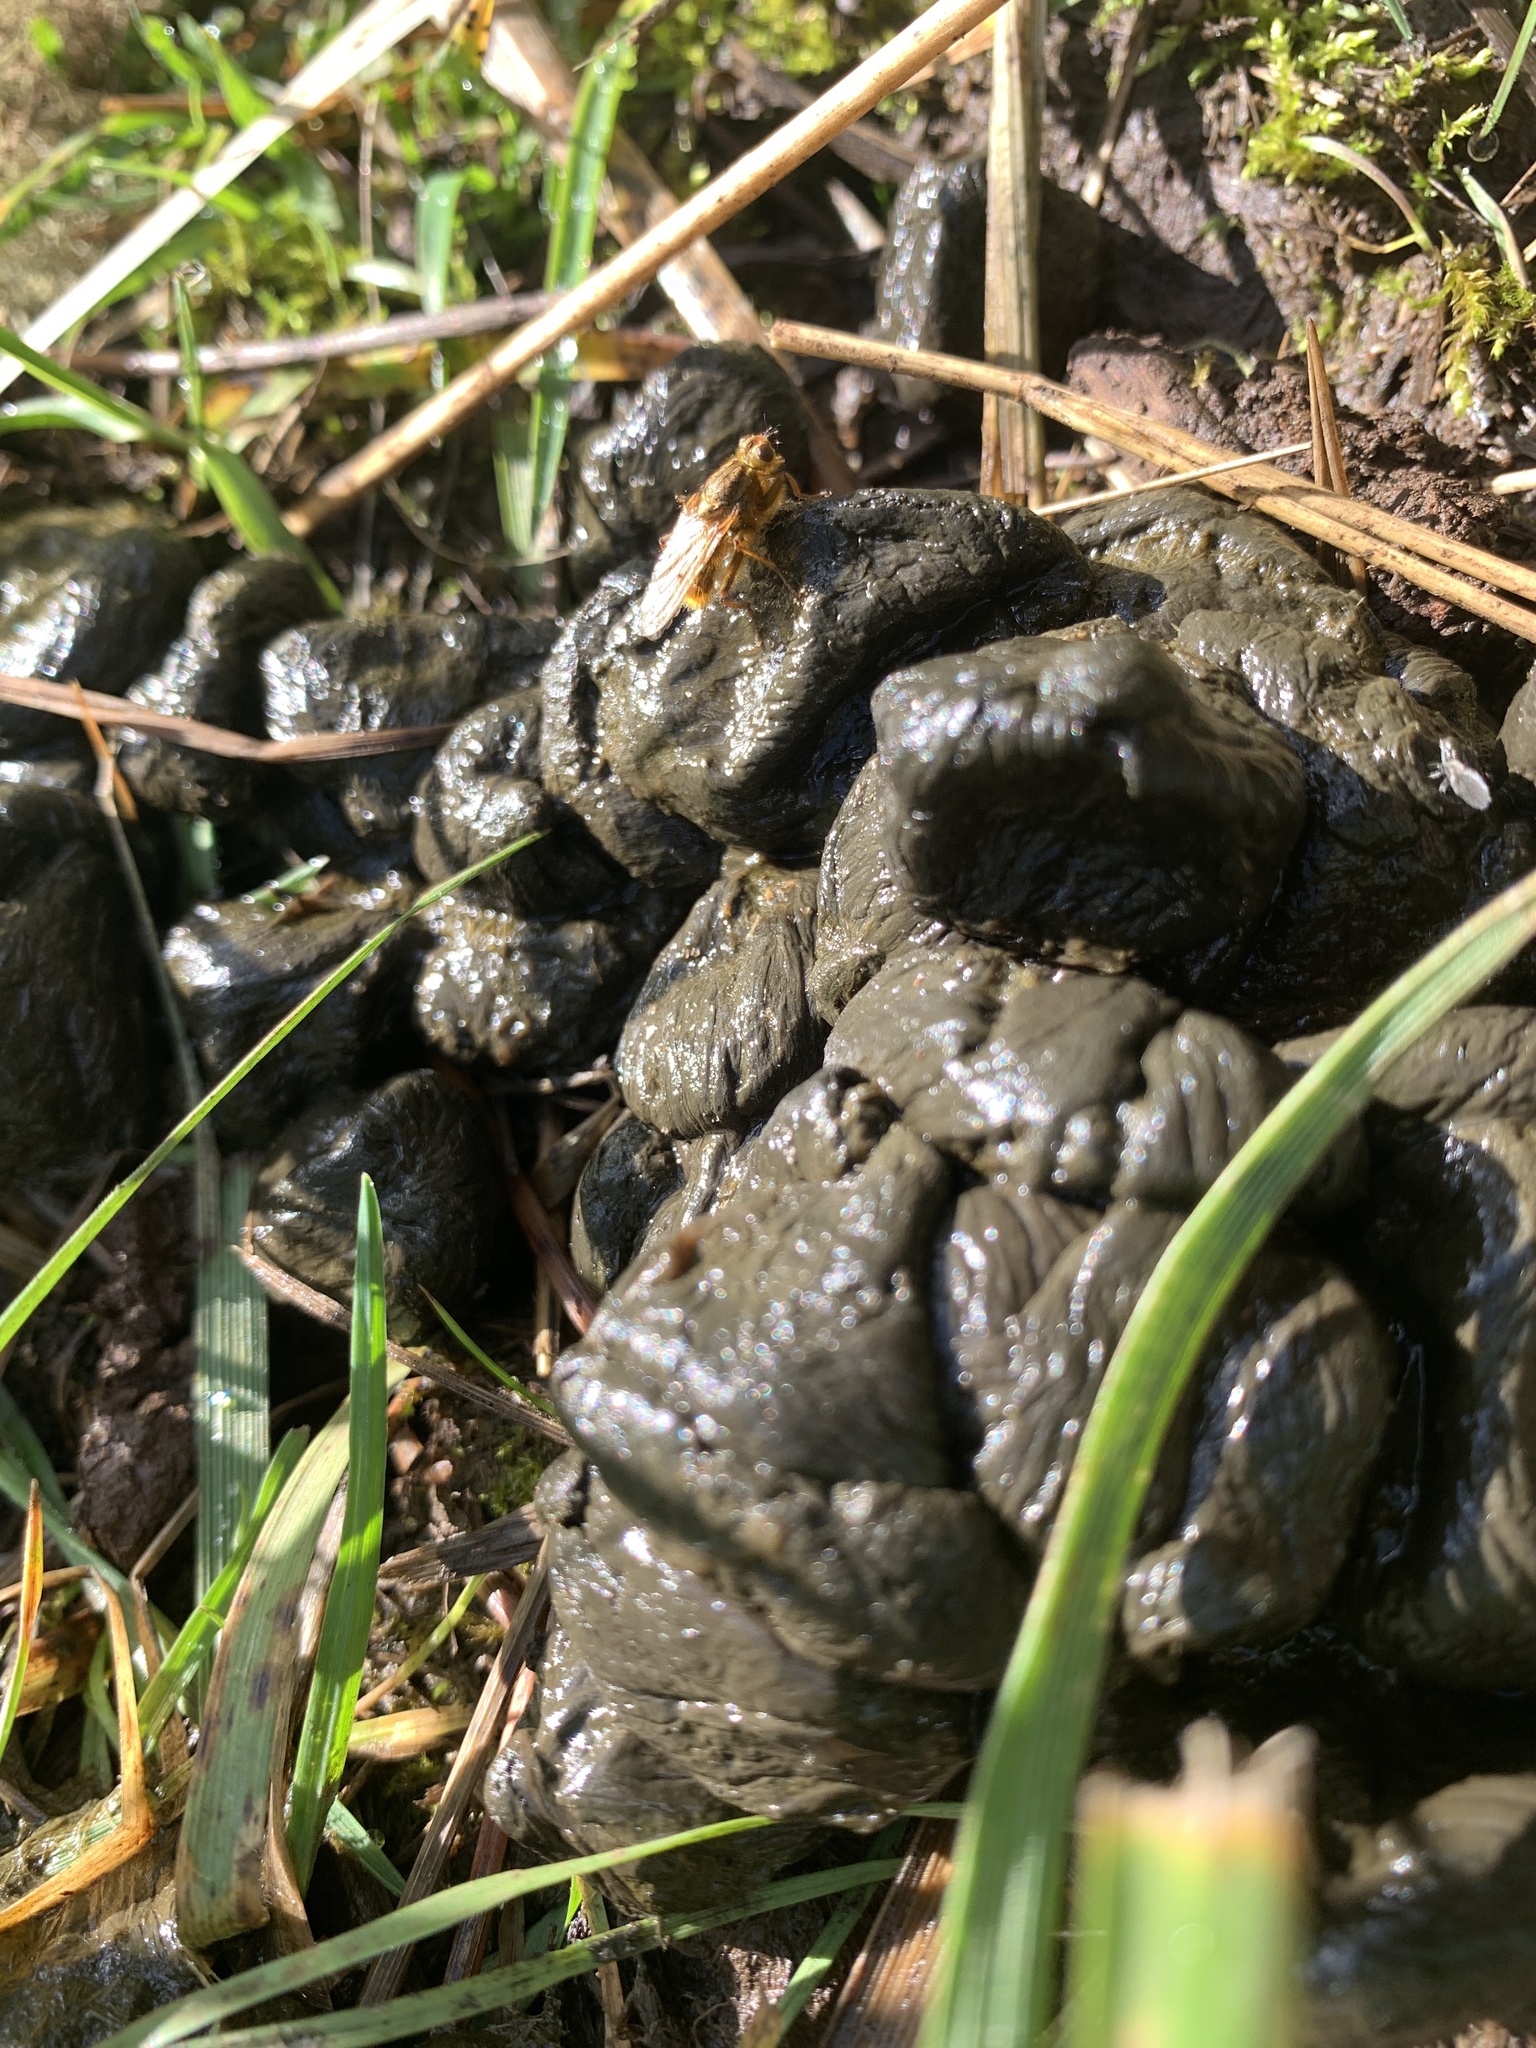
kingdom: Animalia
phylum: Arthropoda
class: Insecta
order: Diptera
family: Scathophagidae
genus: Scathophaga
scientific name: Scathophaga stercoraria
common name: Yellow dung fly
